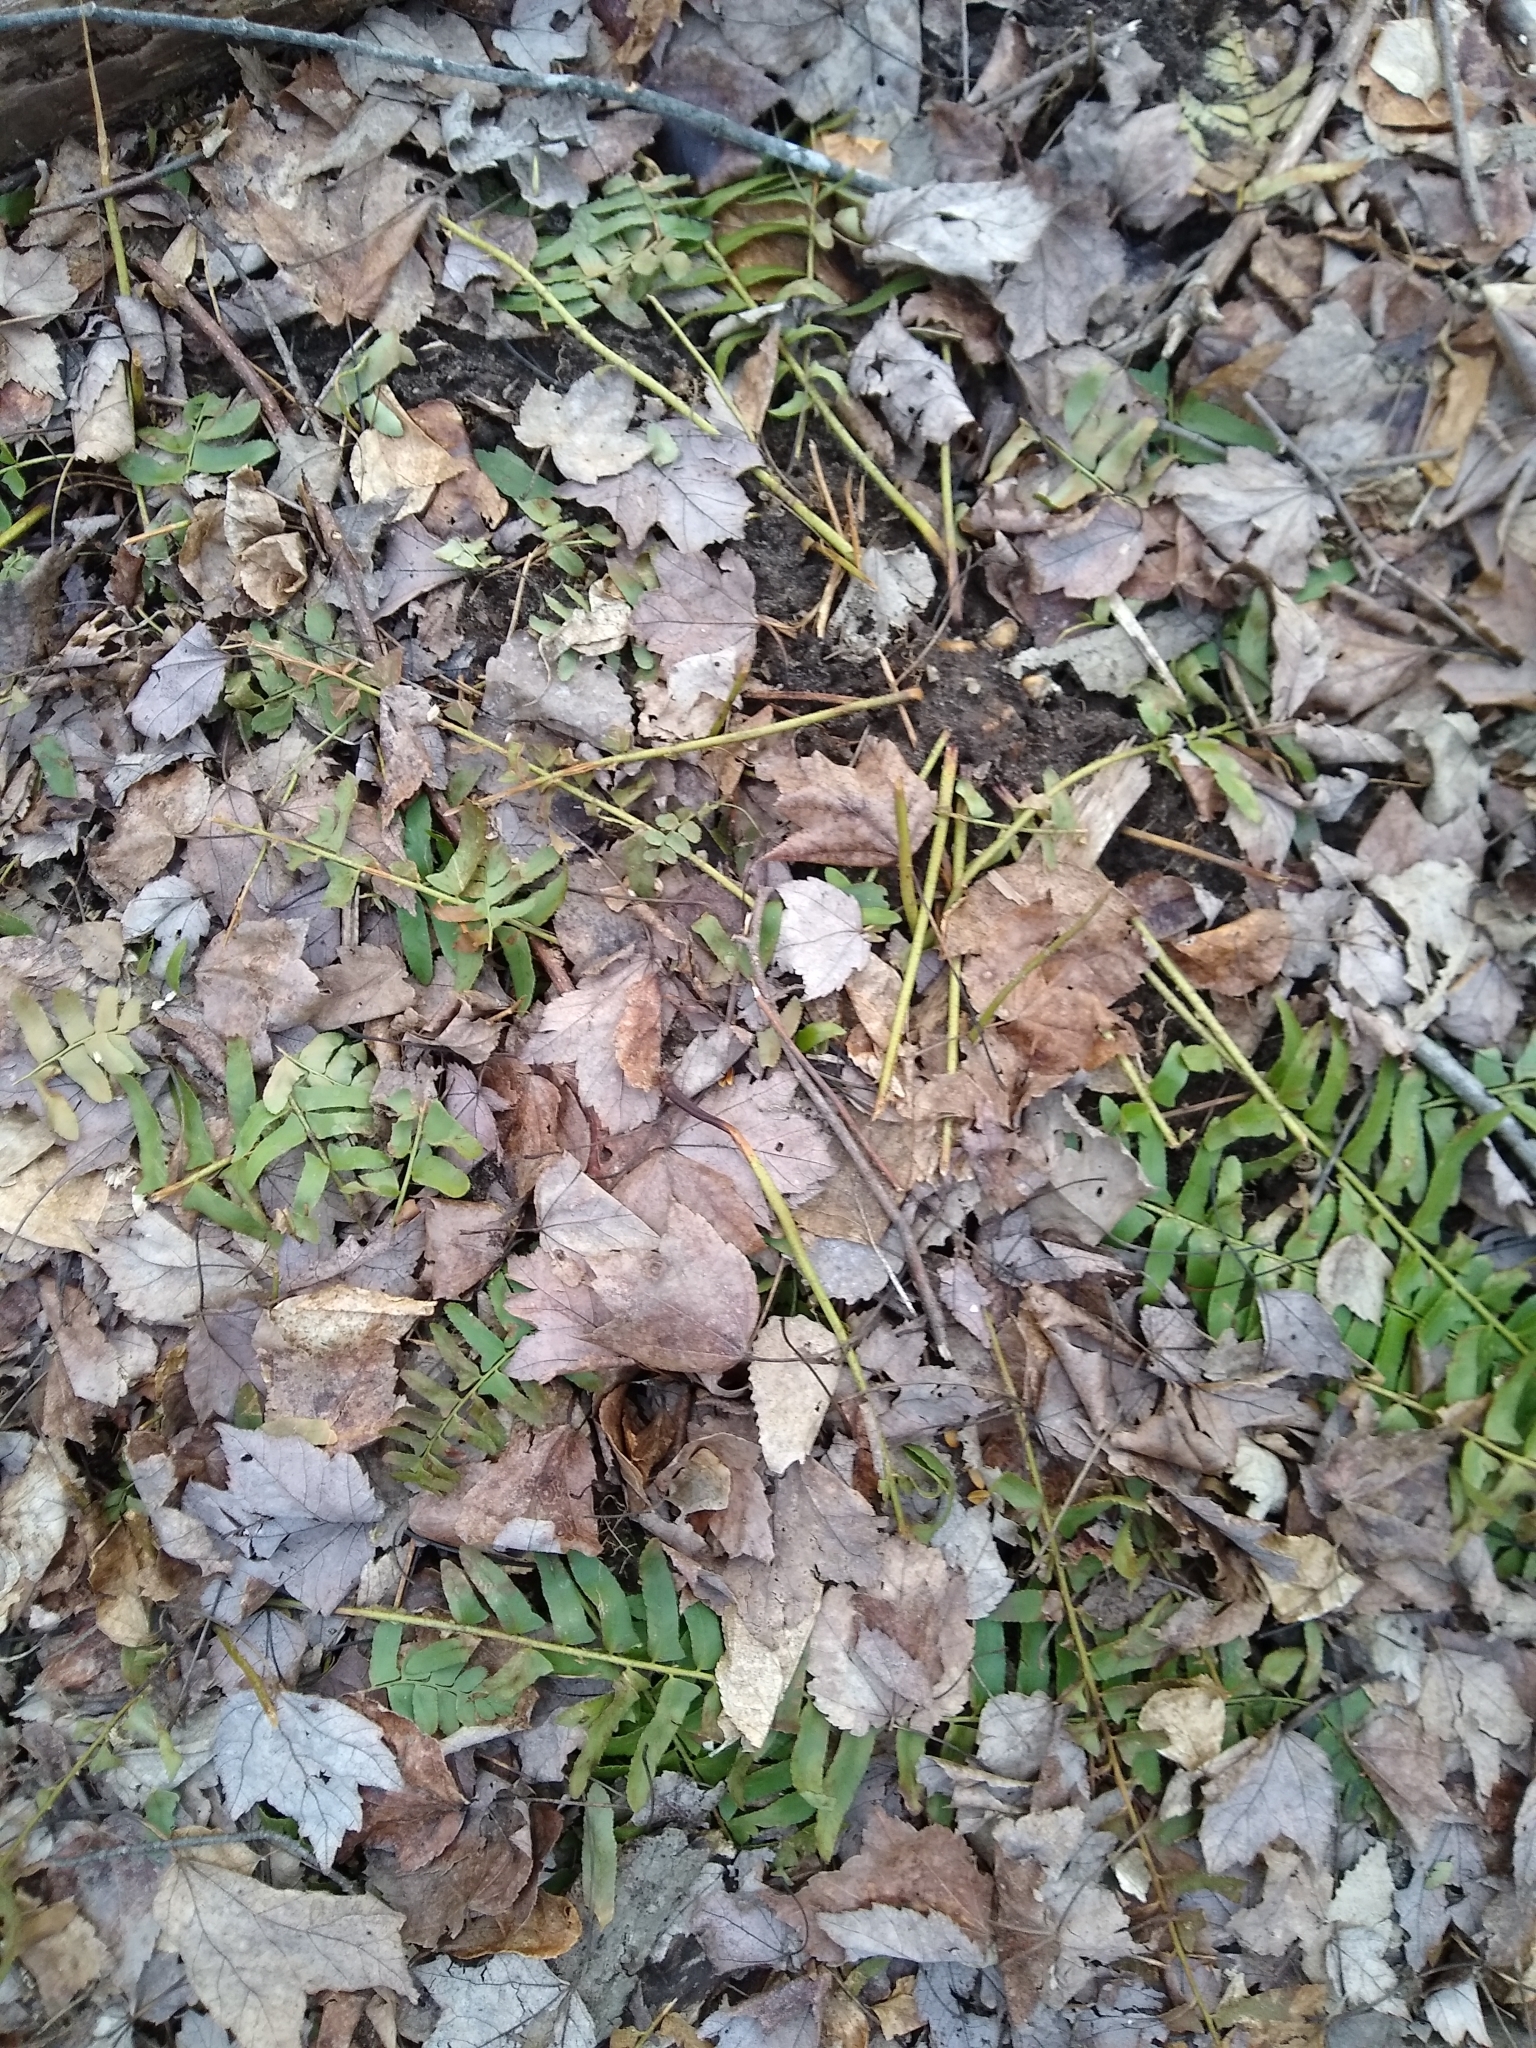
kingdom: Plantae
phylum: Tracheophyta
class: Polypodiopsida
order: Polypodiales
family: Dryopteridaceae
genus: Polystichum
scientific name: Polystichum acrostichoides
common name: Christmas fern
